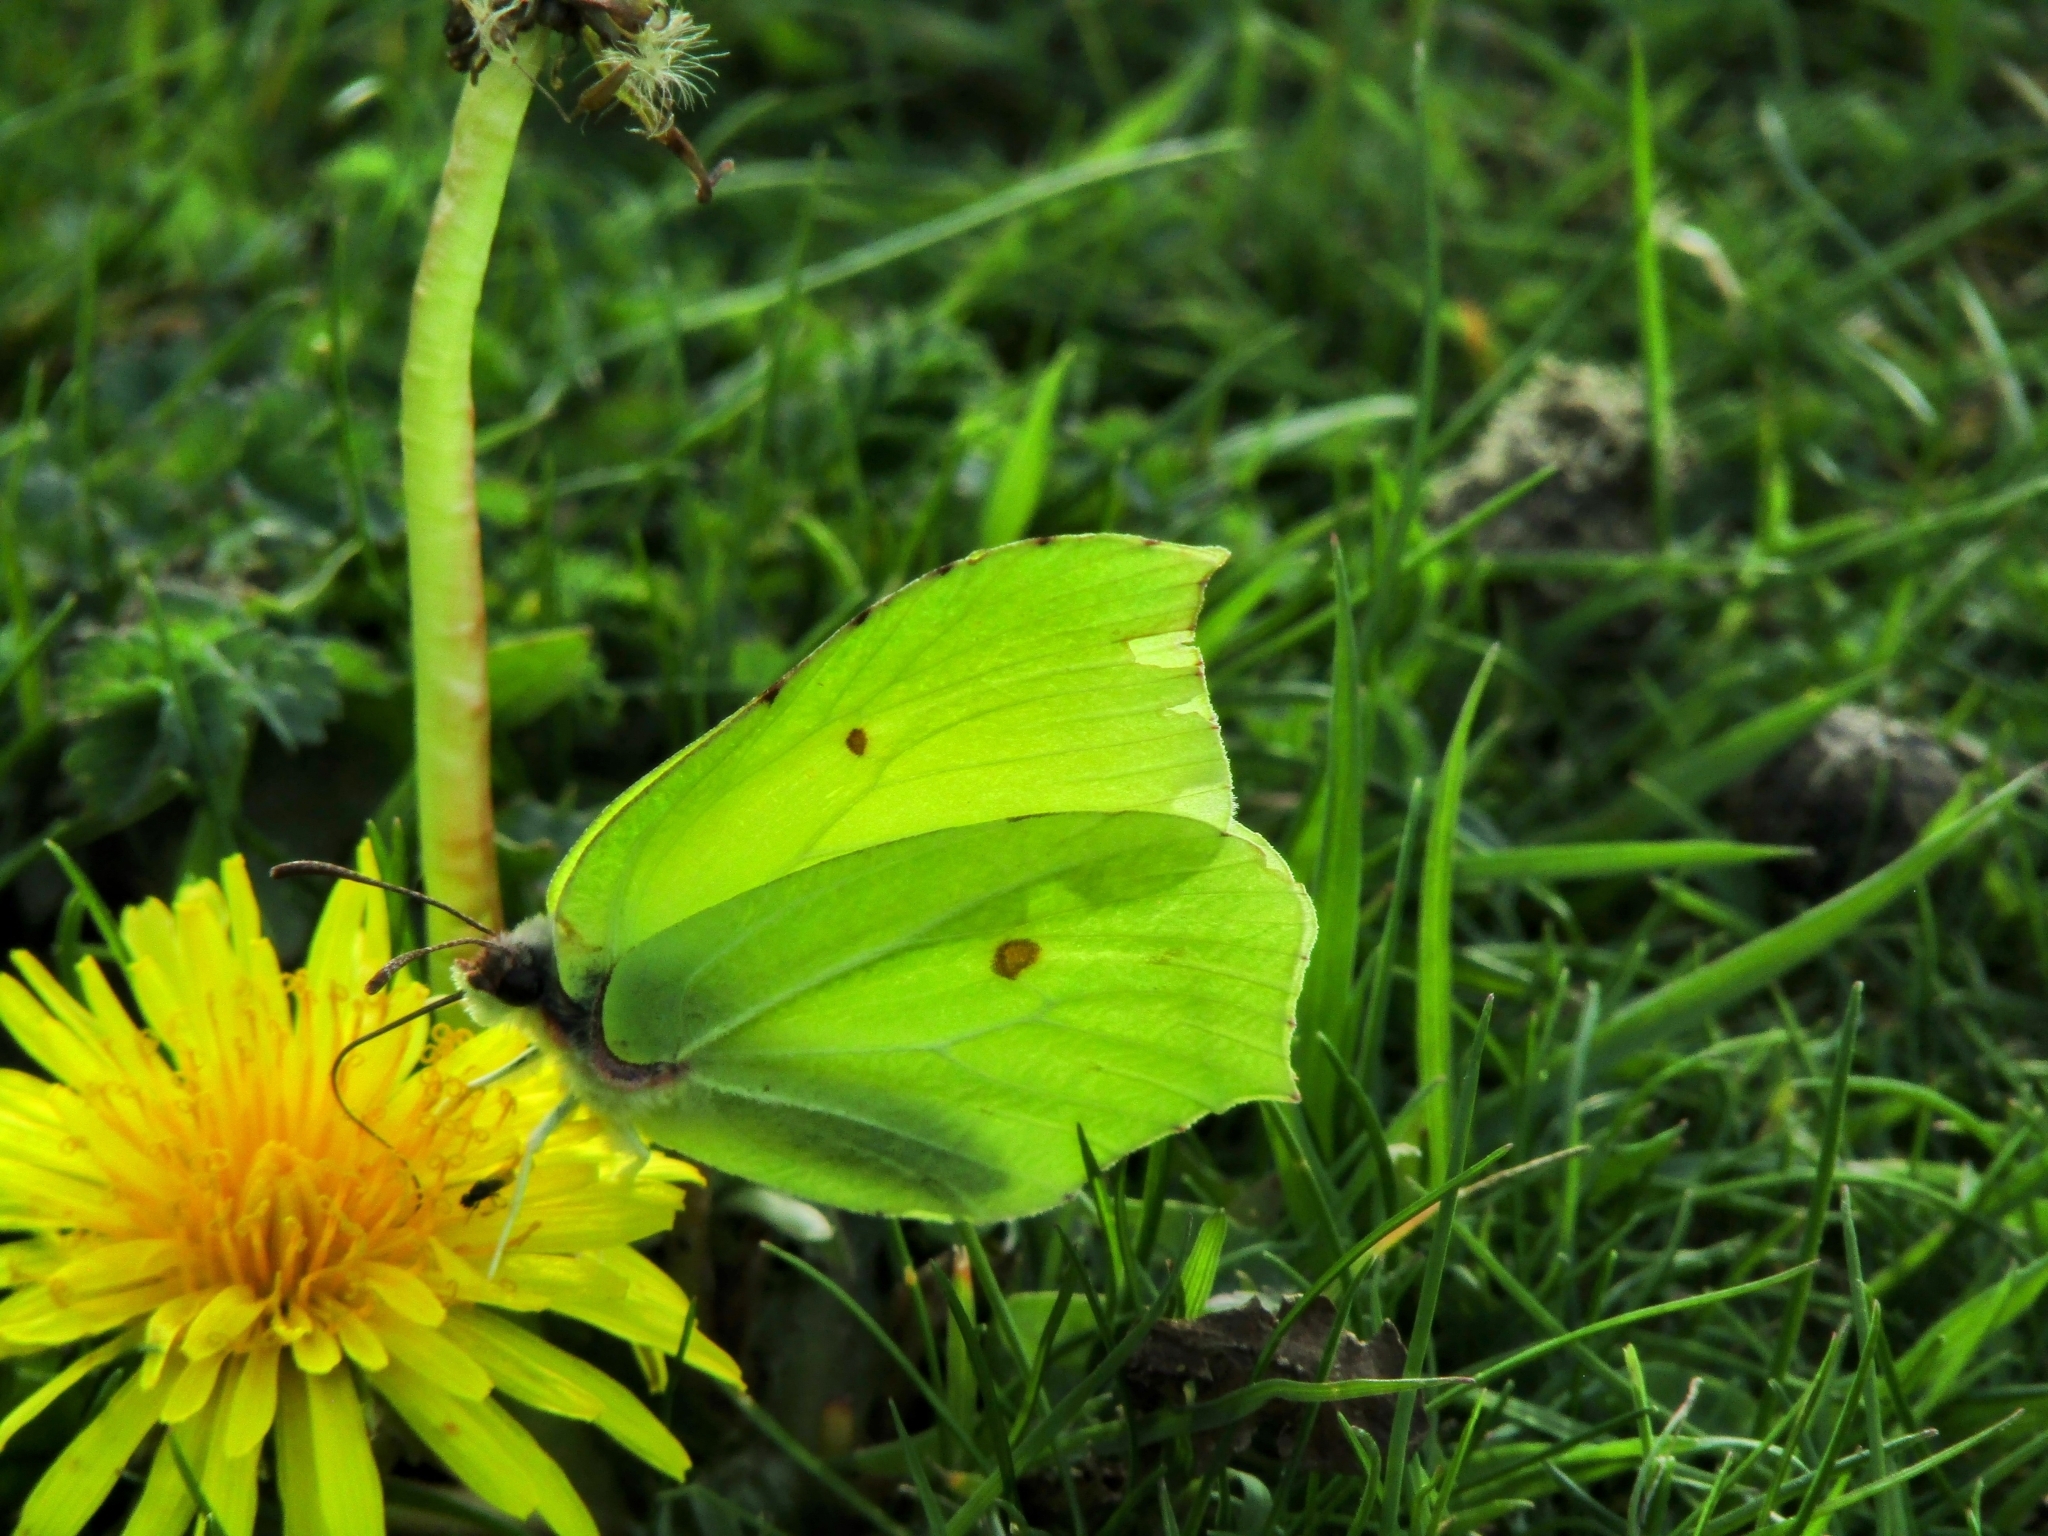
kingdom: Animalia
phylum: Arthropoda
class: Insecta
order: Lepidoptera
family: Pieridae
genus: Gonepteryx
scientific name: Gonepteryx rhamni
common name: Brimstone
